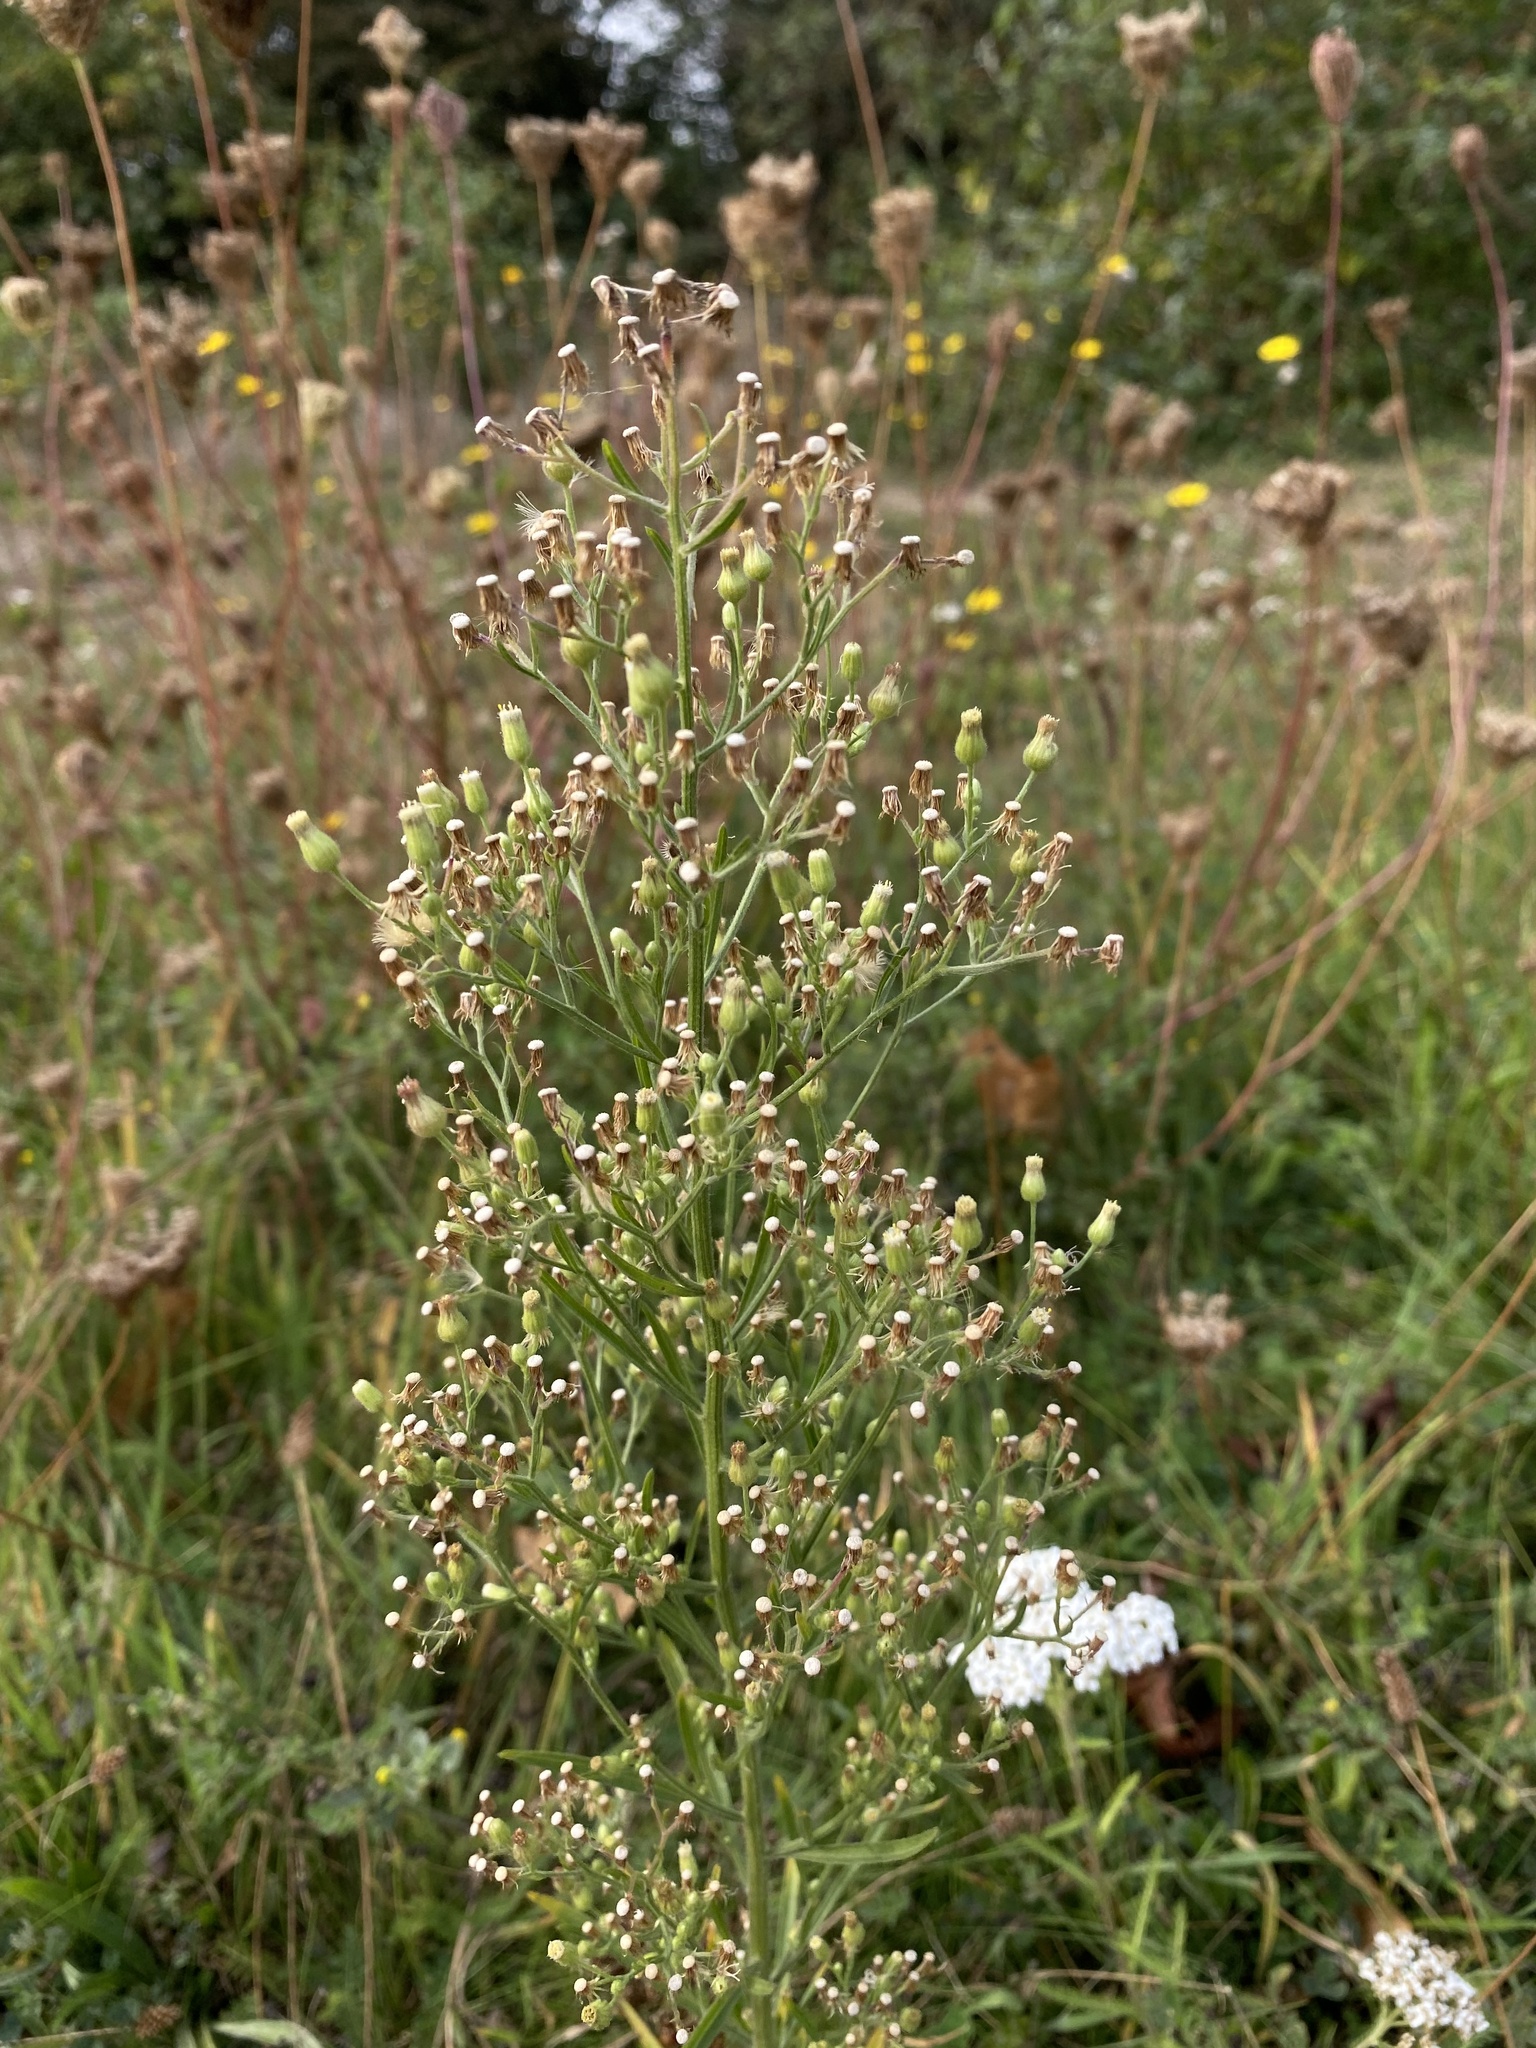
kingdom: Plantae
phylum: Tracheophyta
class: Magnoliopsida
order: Asterales
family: Asteraceae
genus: Erigeron
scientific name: Erigeron sumatrensis
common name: Daisy
